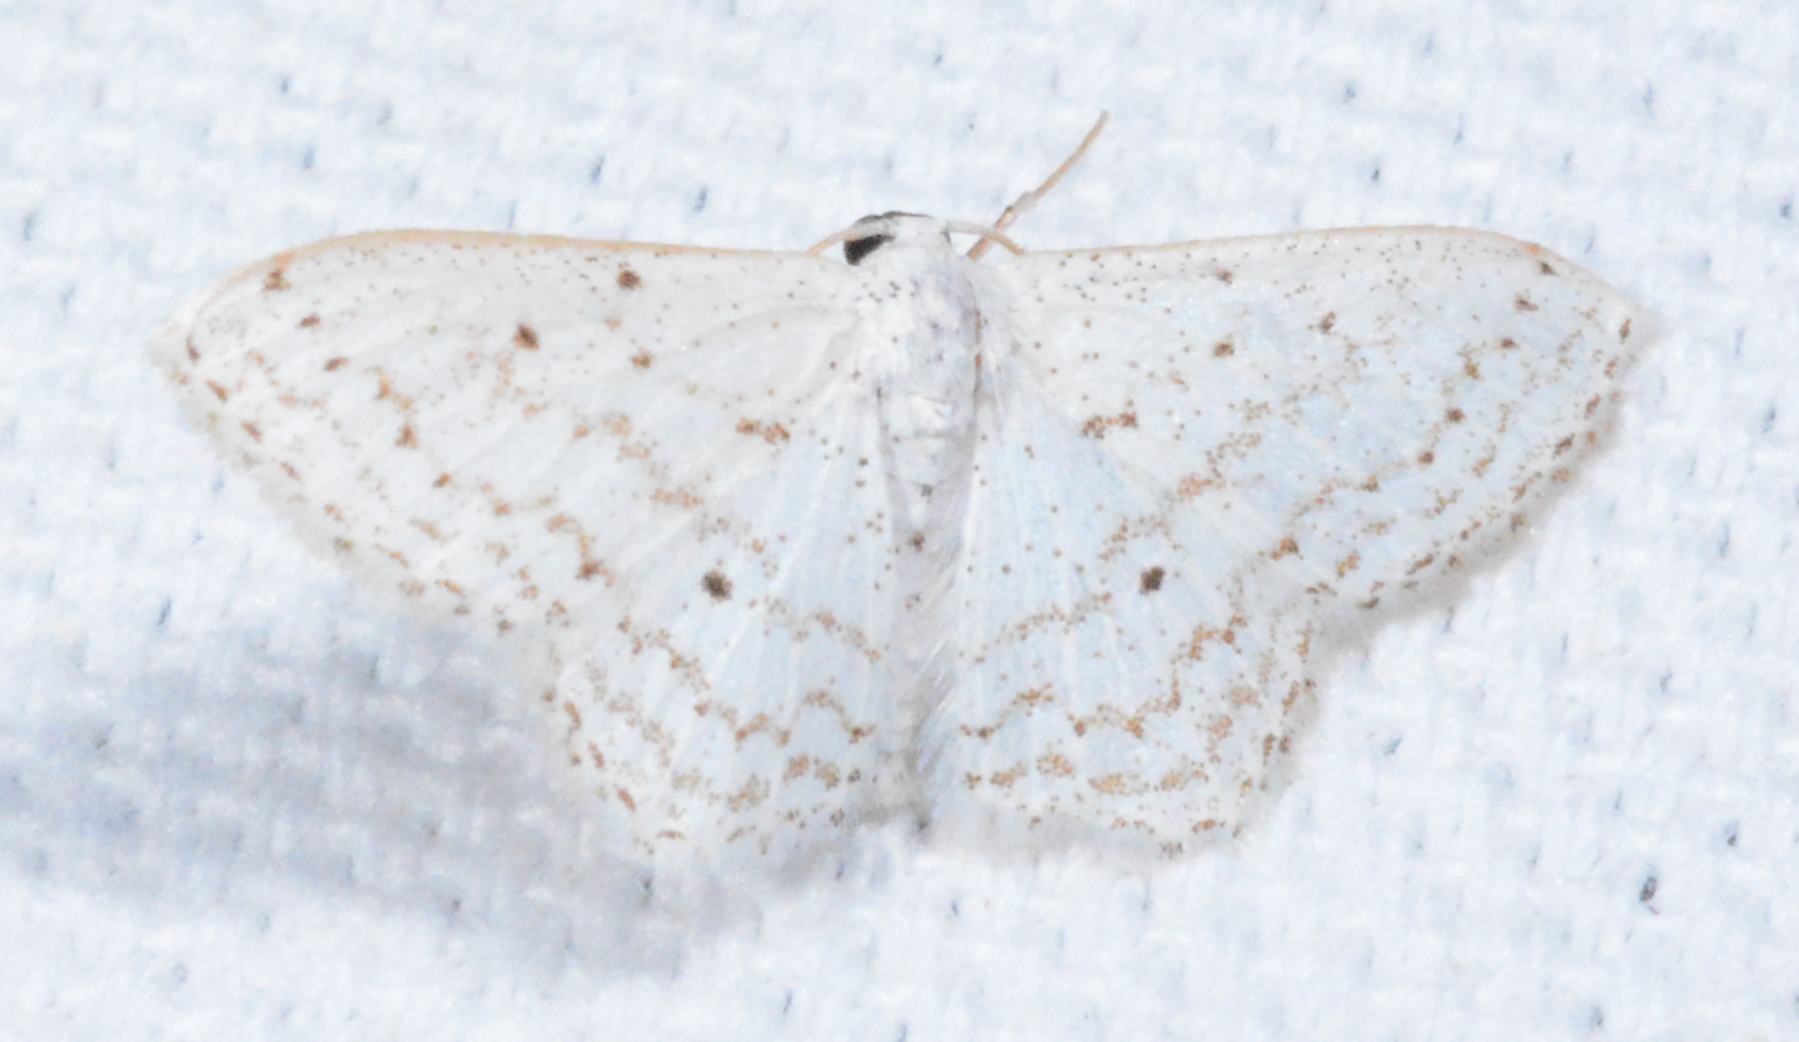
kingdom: Animalia
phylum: Arthropoda
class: Insecta
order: Lepidoptera
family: Geometridae
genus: Idaea
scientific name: Idaea tacturata
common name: Dot-lined wave
